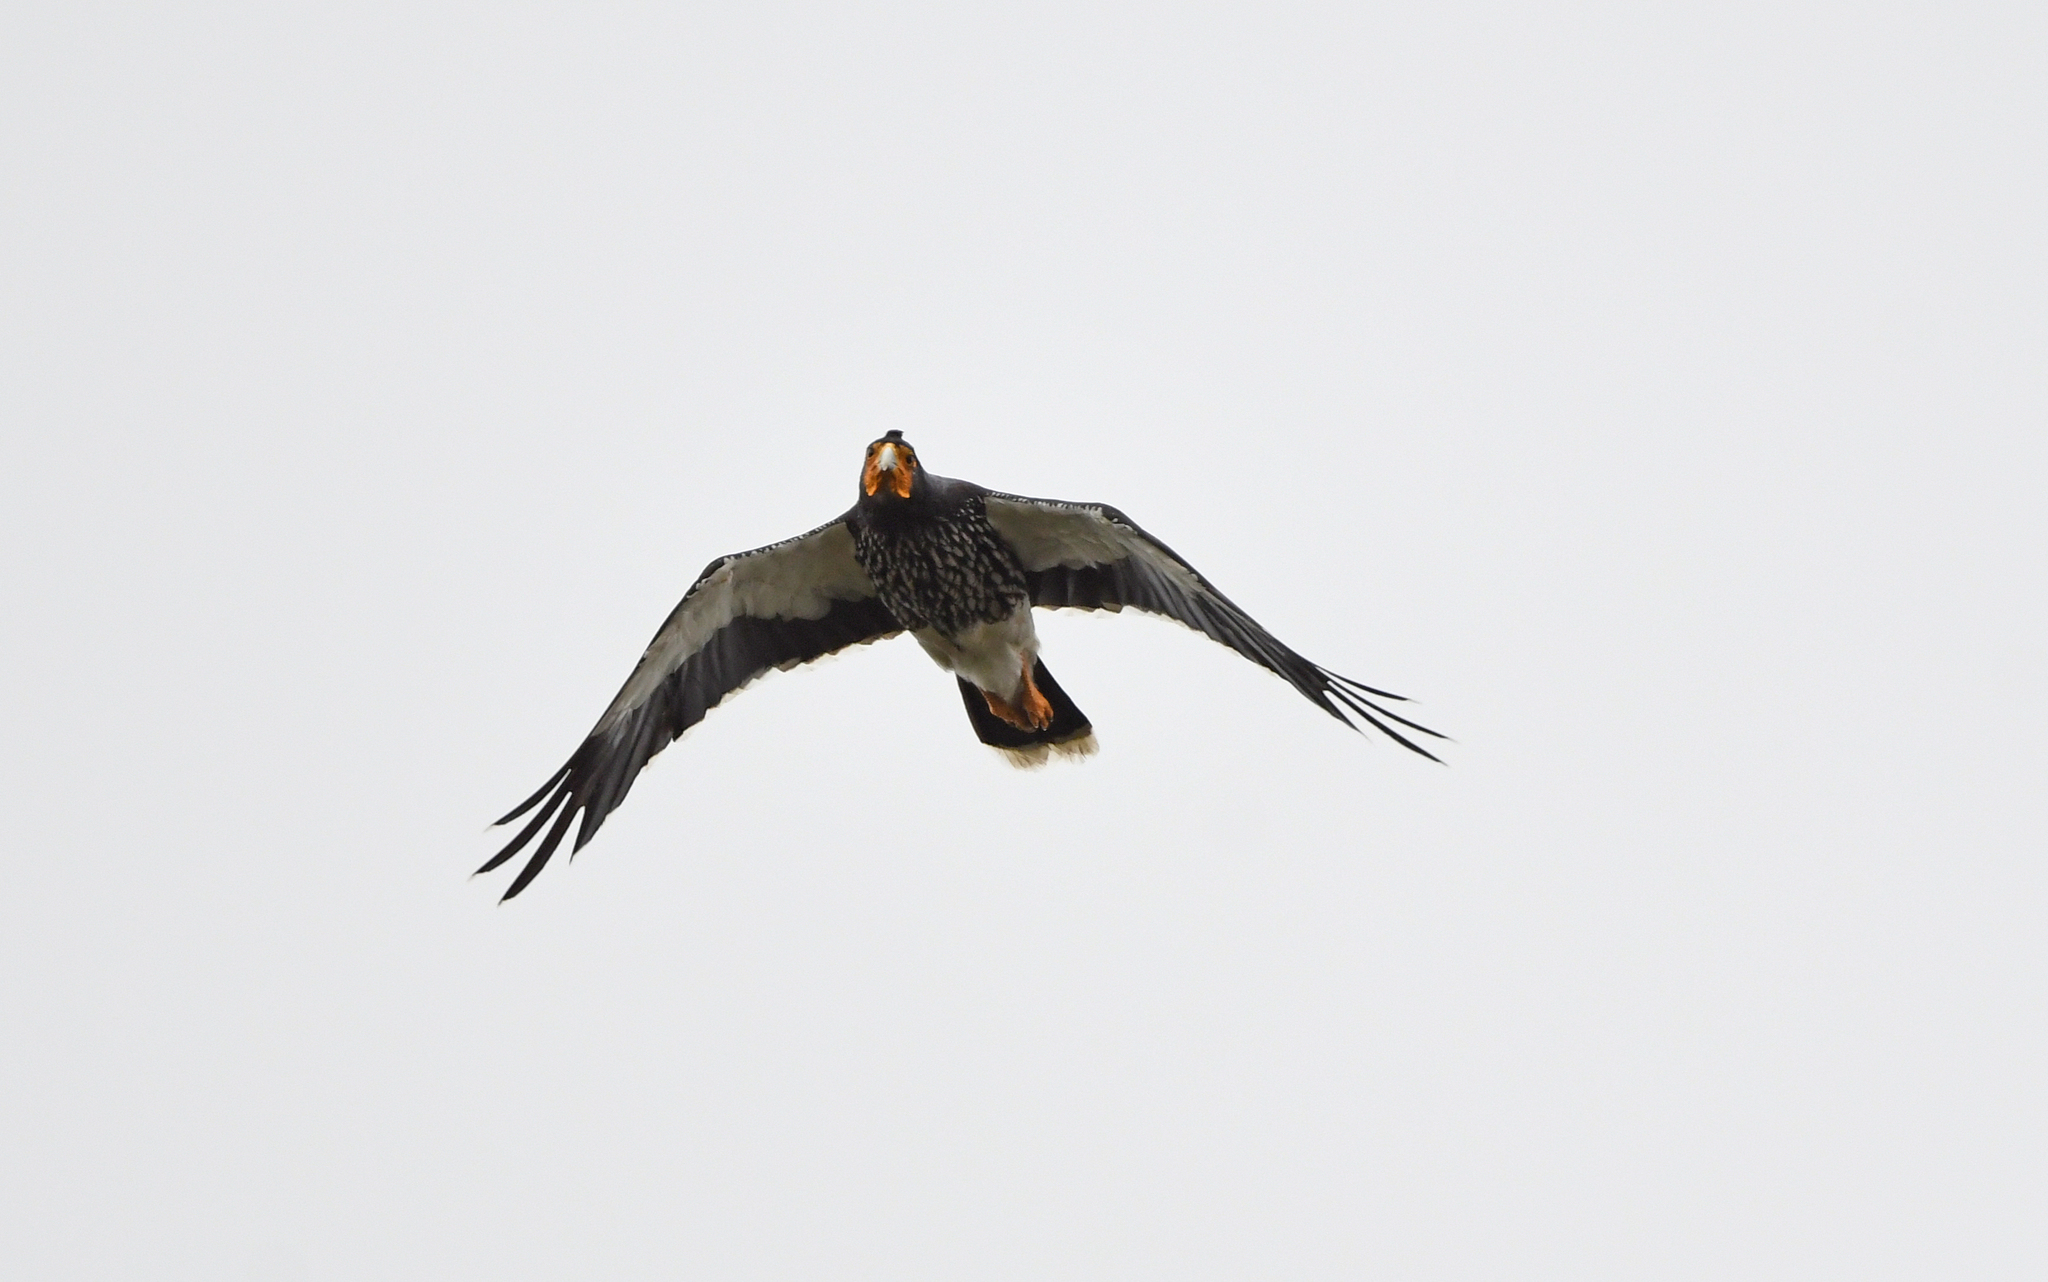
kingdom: Animalia
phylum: Chordata
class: Aves
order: Falconiformes
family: Falconidae
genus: Daptrius
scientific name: Daptrius
